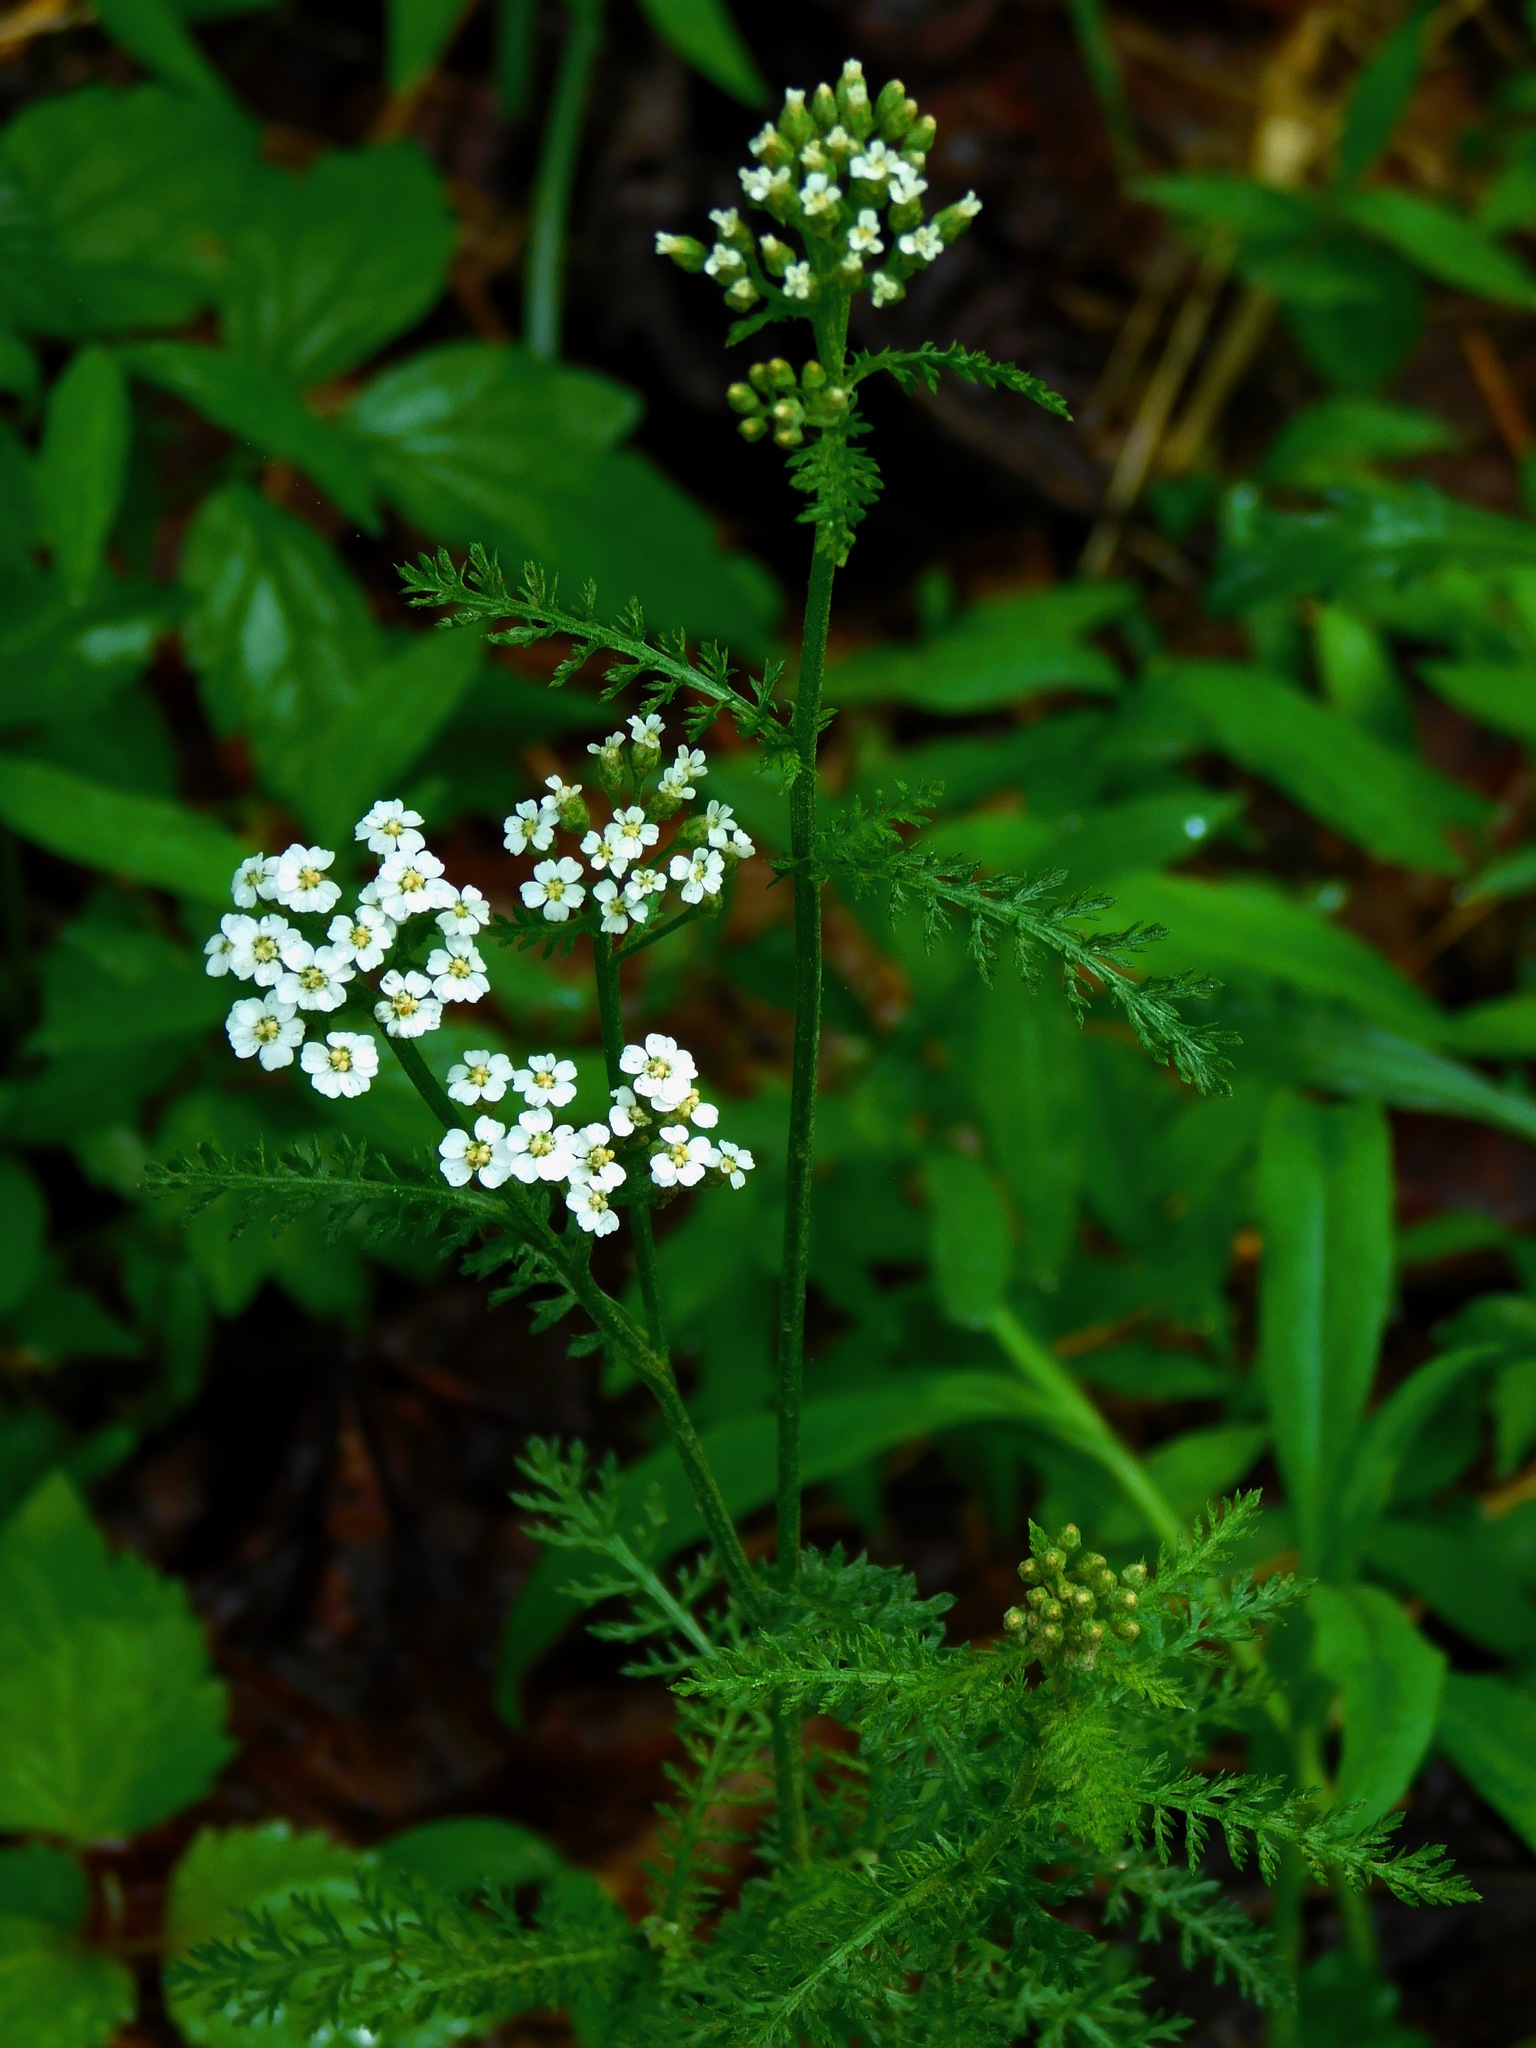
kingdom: Plantae
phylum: Tracheophyta
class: Magnoliopsida
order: Asterales
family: Asteraceae
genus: Achillea
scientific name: Achillea millefolium
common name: Yarrow
